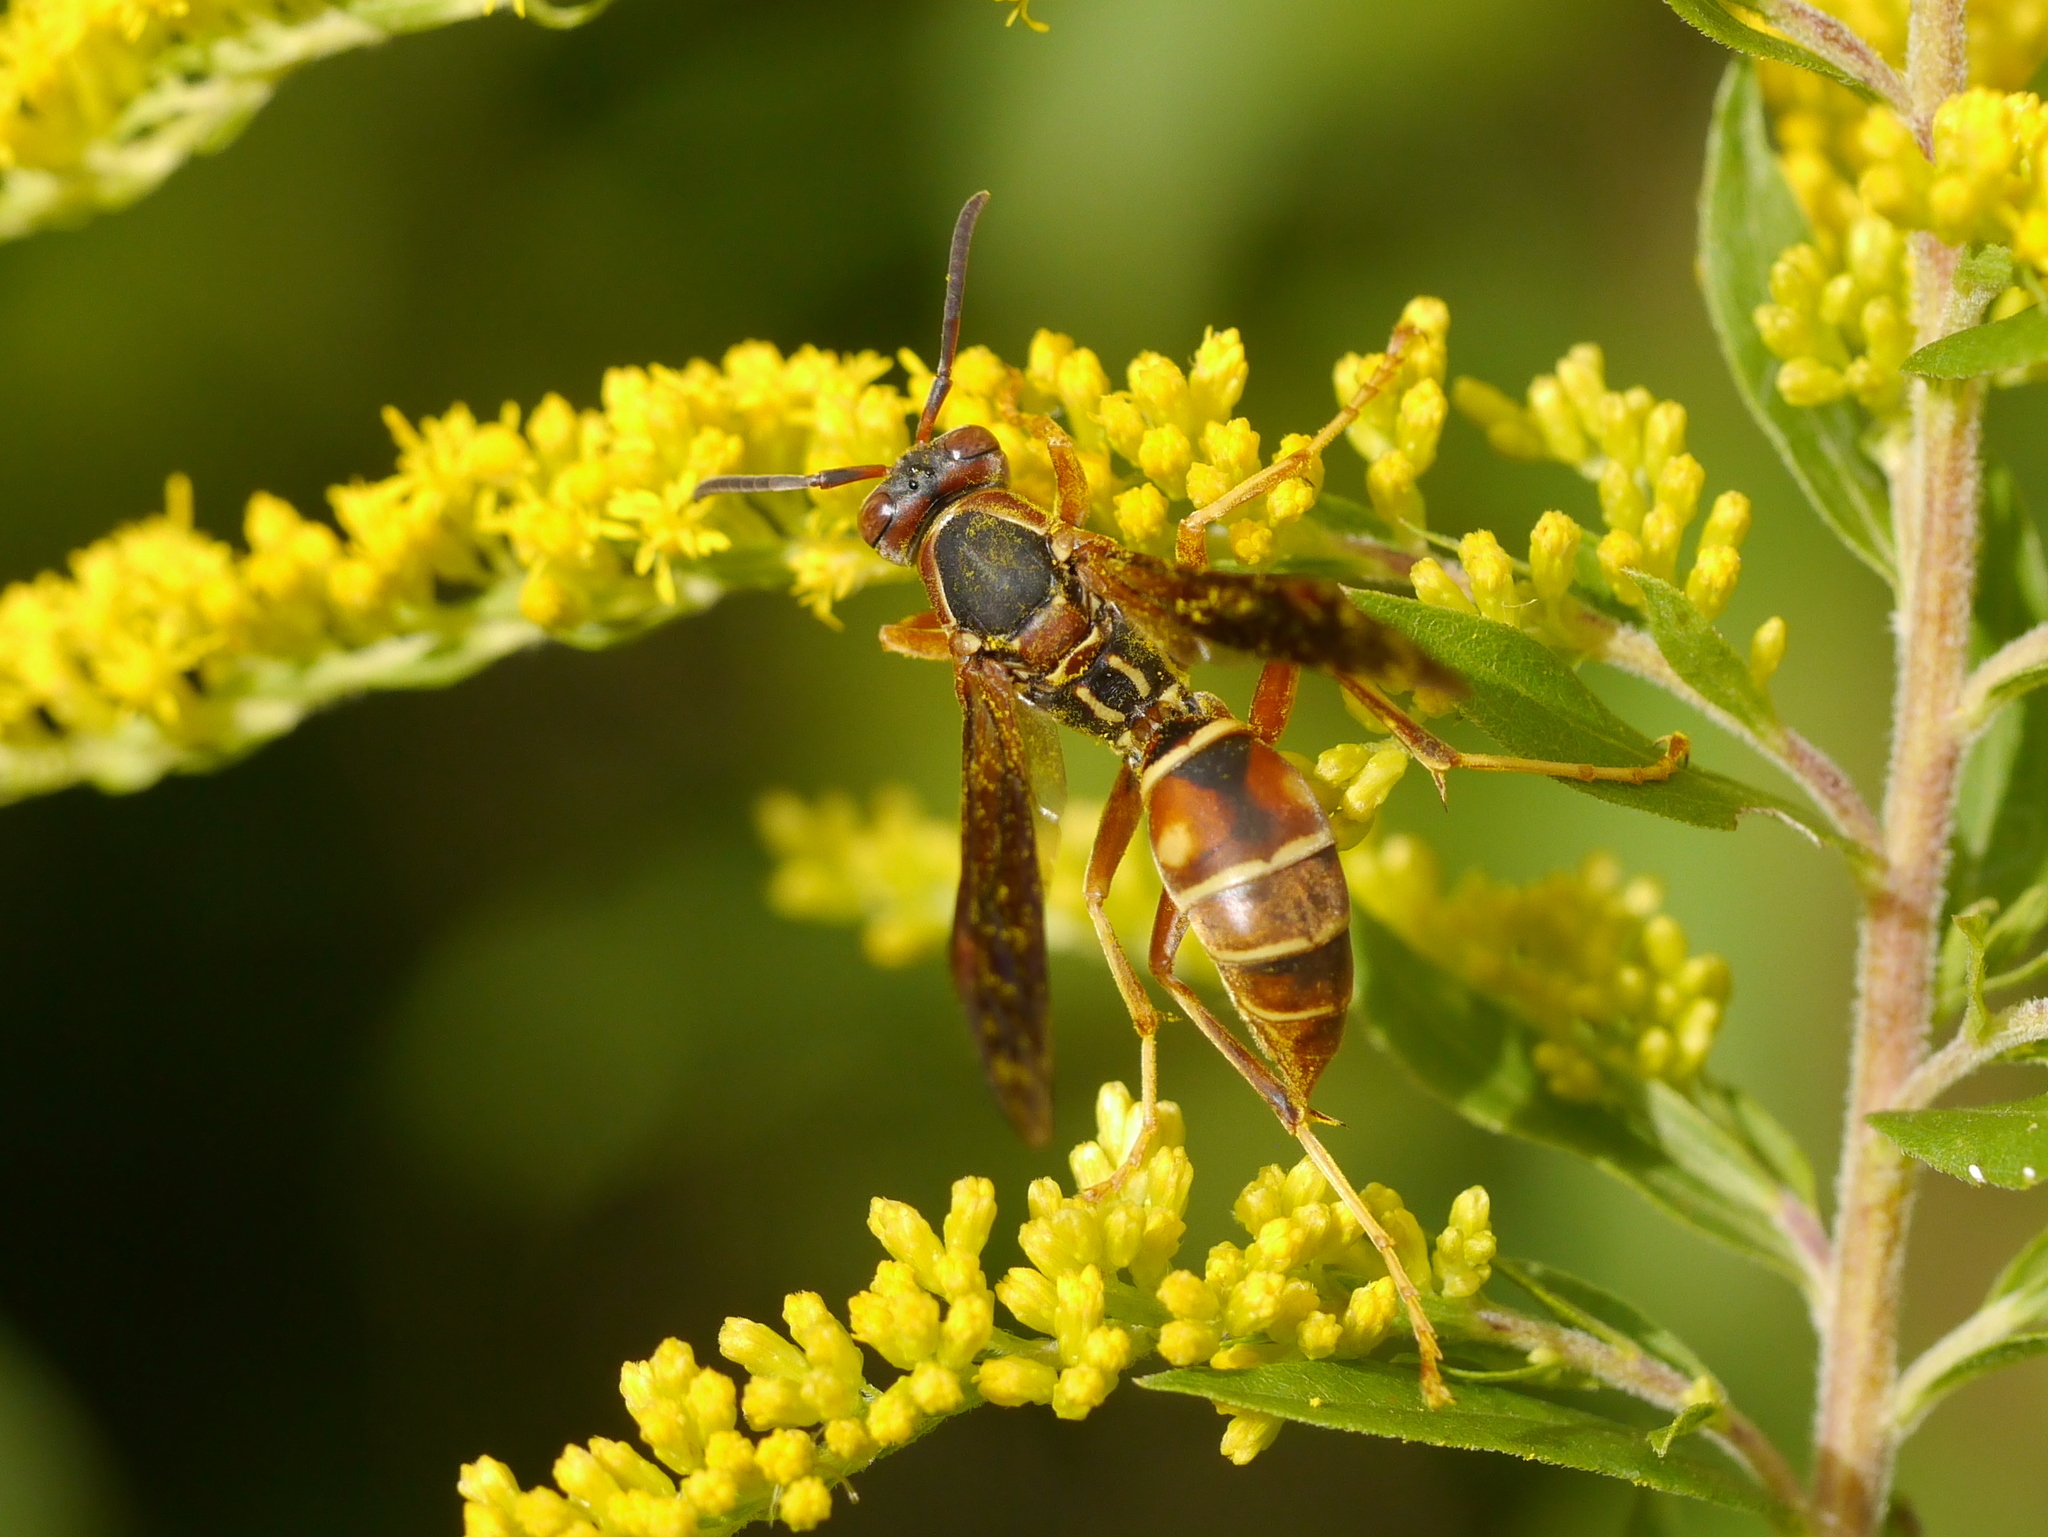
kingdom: Animalia
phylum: Arthropoda
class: Insecta
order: Hymenoptera
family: Eumenidae
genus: Polistes
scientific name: Polistes fuscatus
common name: Dark paper wasp
